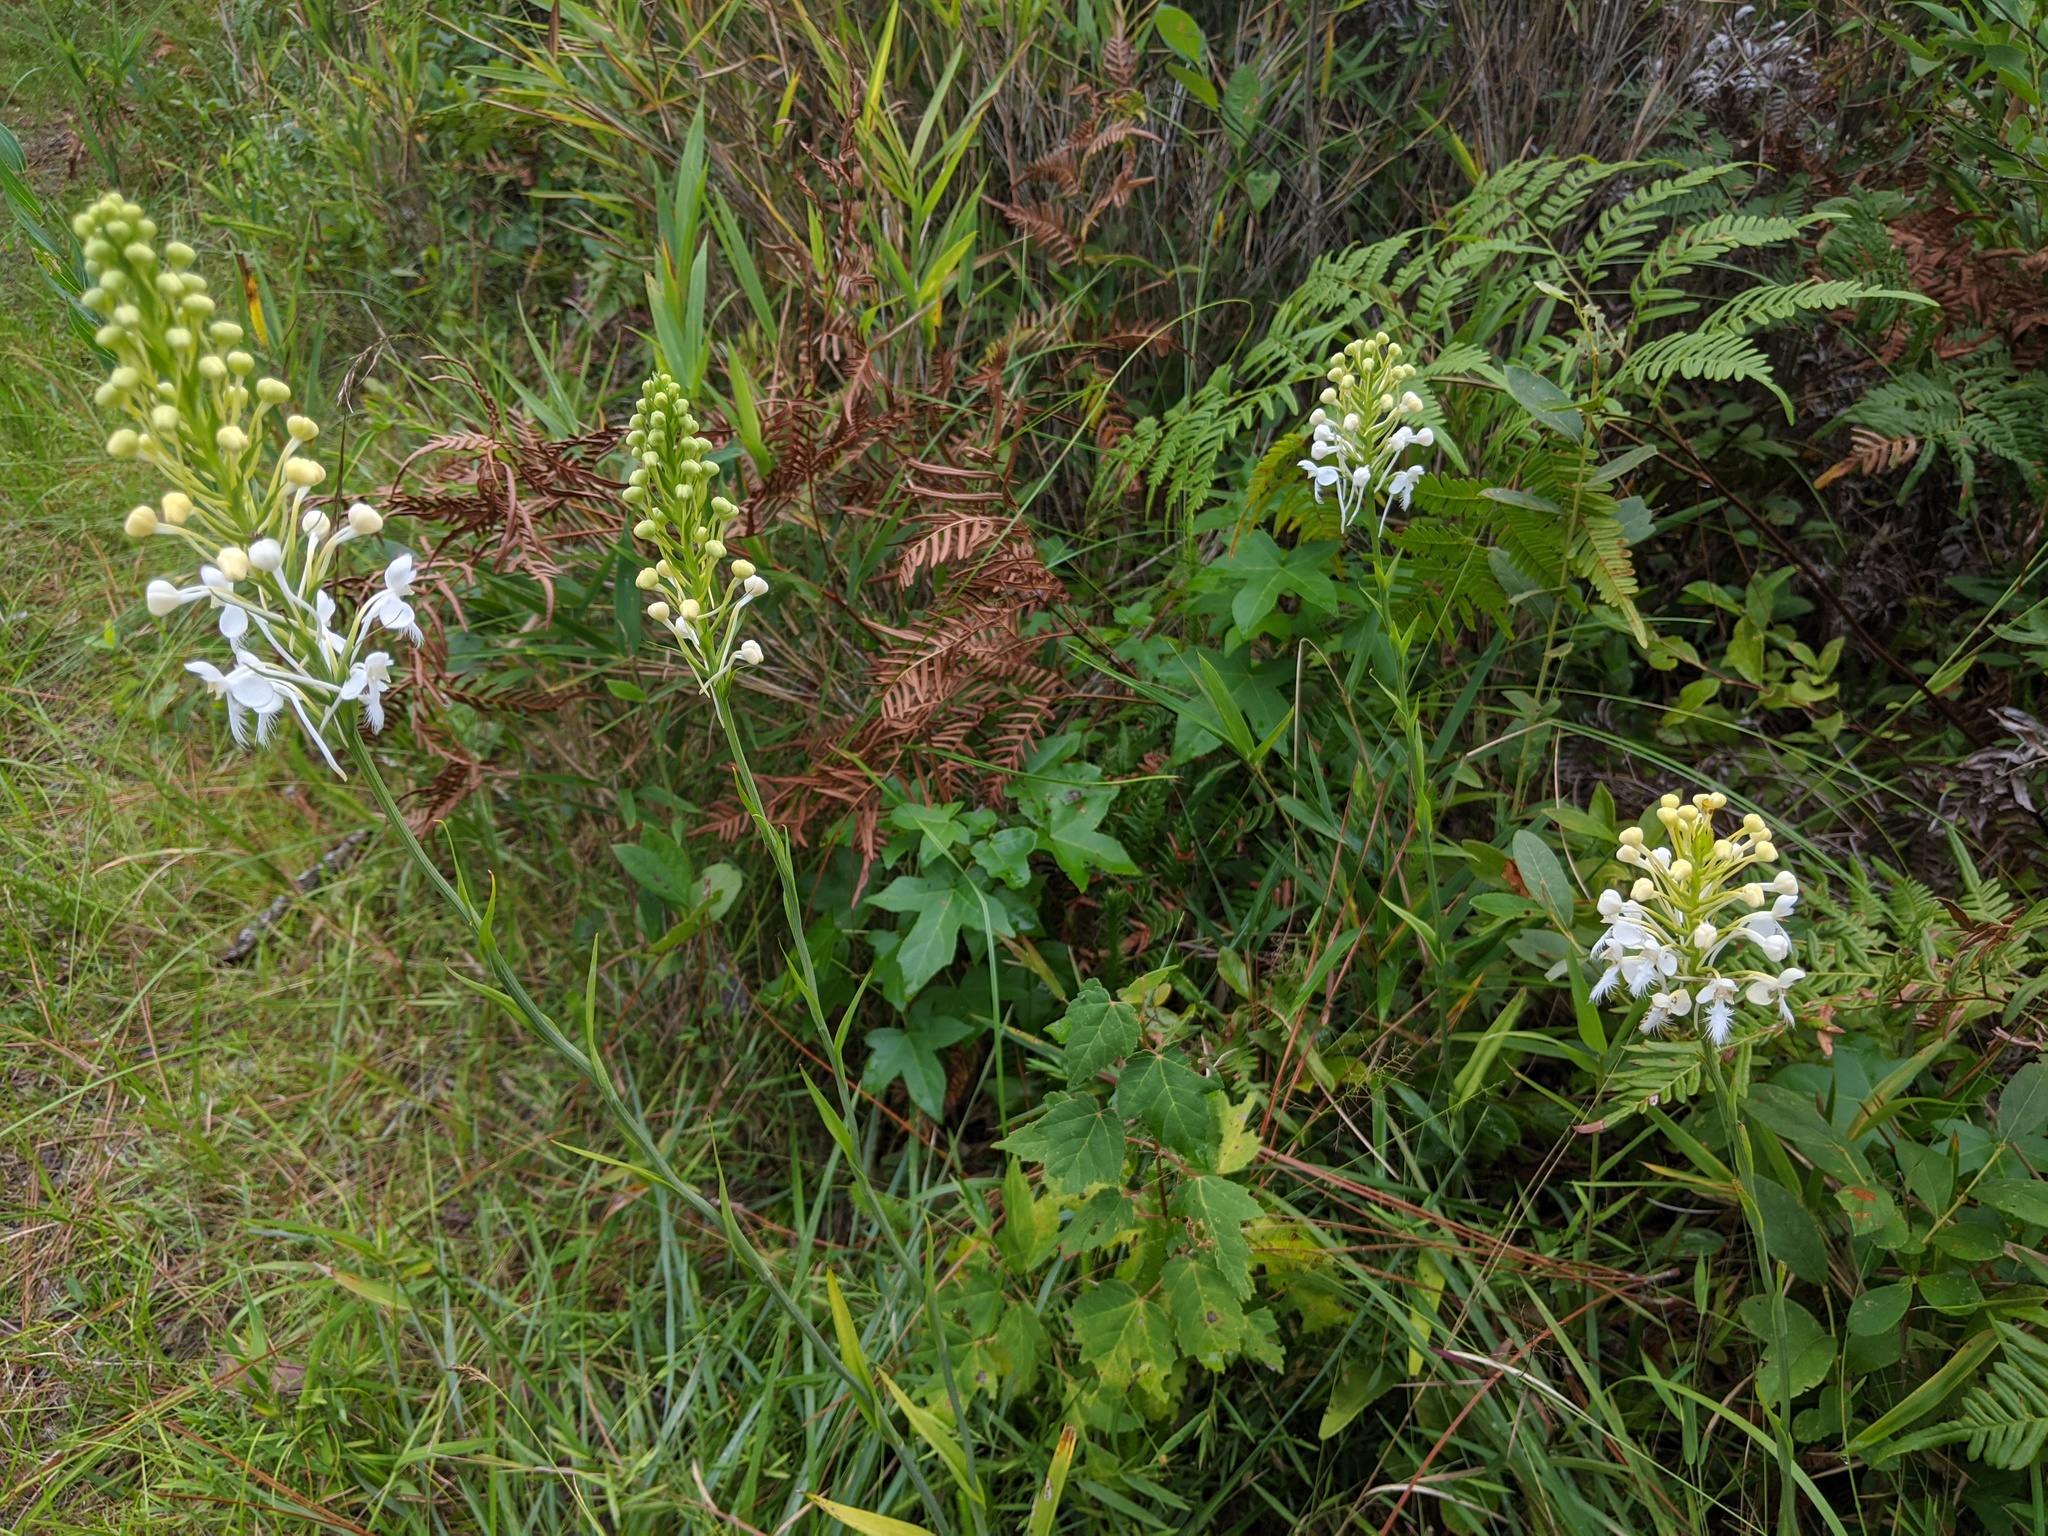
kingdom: Plantae
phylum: Tracheophyta
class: Liliopsida
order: Asparagales
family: Orchidaceae
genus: Platanthera
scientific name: Platanthera blephariglottis
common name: White fringed orchid
